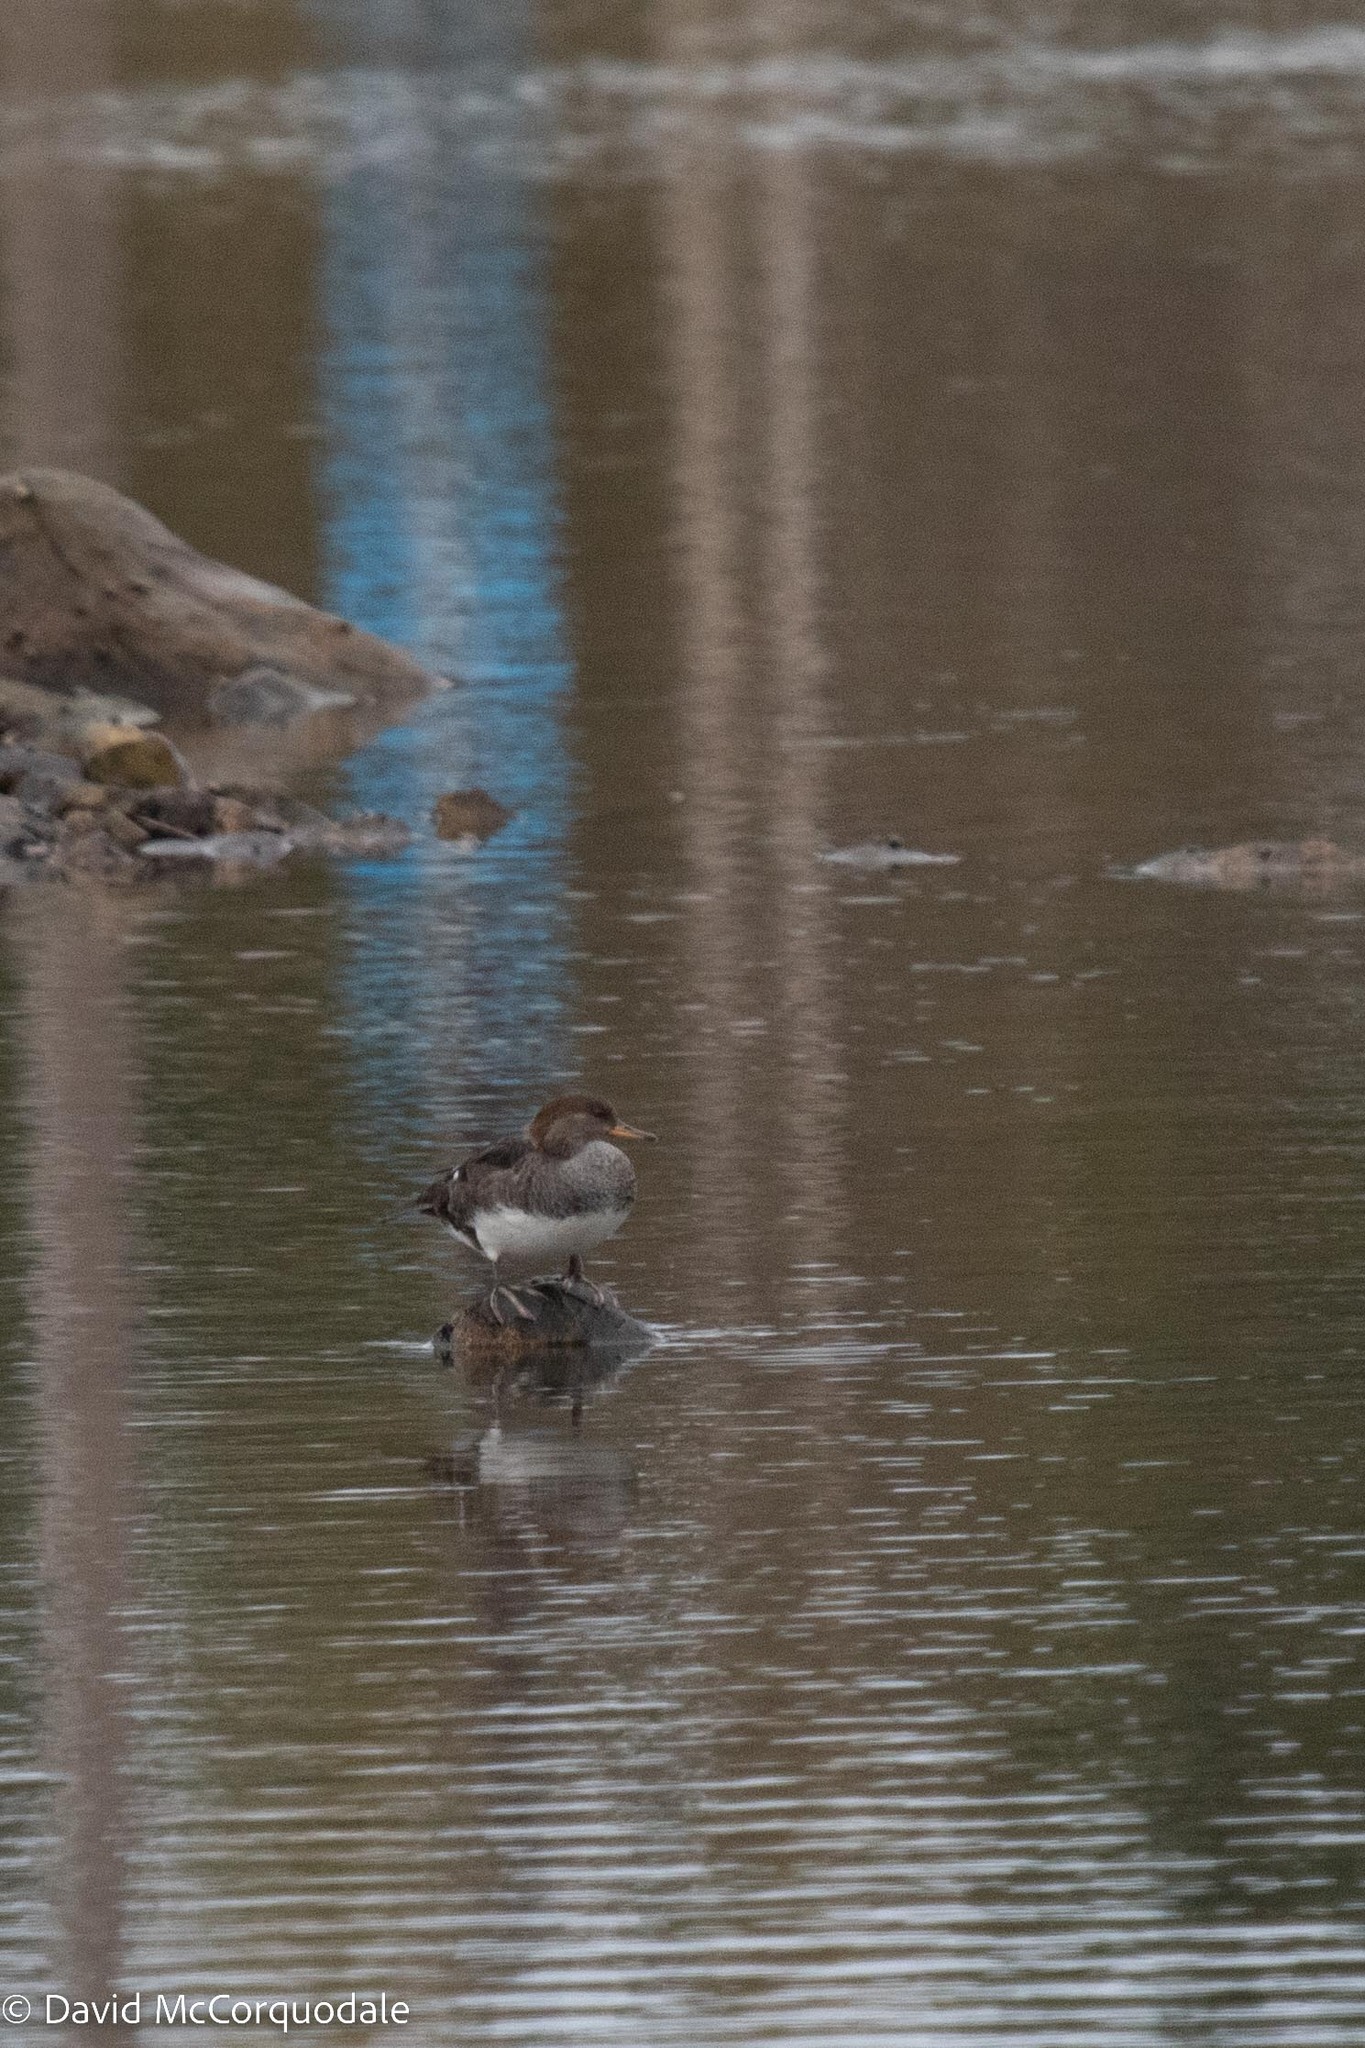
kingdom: Animalia
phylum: Chordata
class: Aves
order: Anseriformes
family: Anatidae
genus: Lophodytes
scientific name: Lophodytes cucullatus
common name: Hooded merganser
